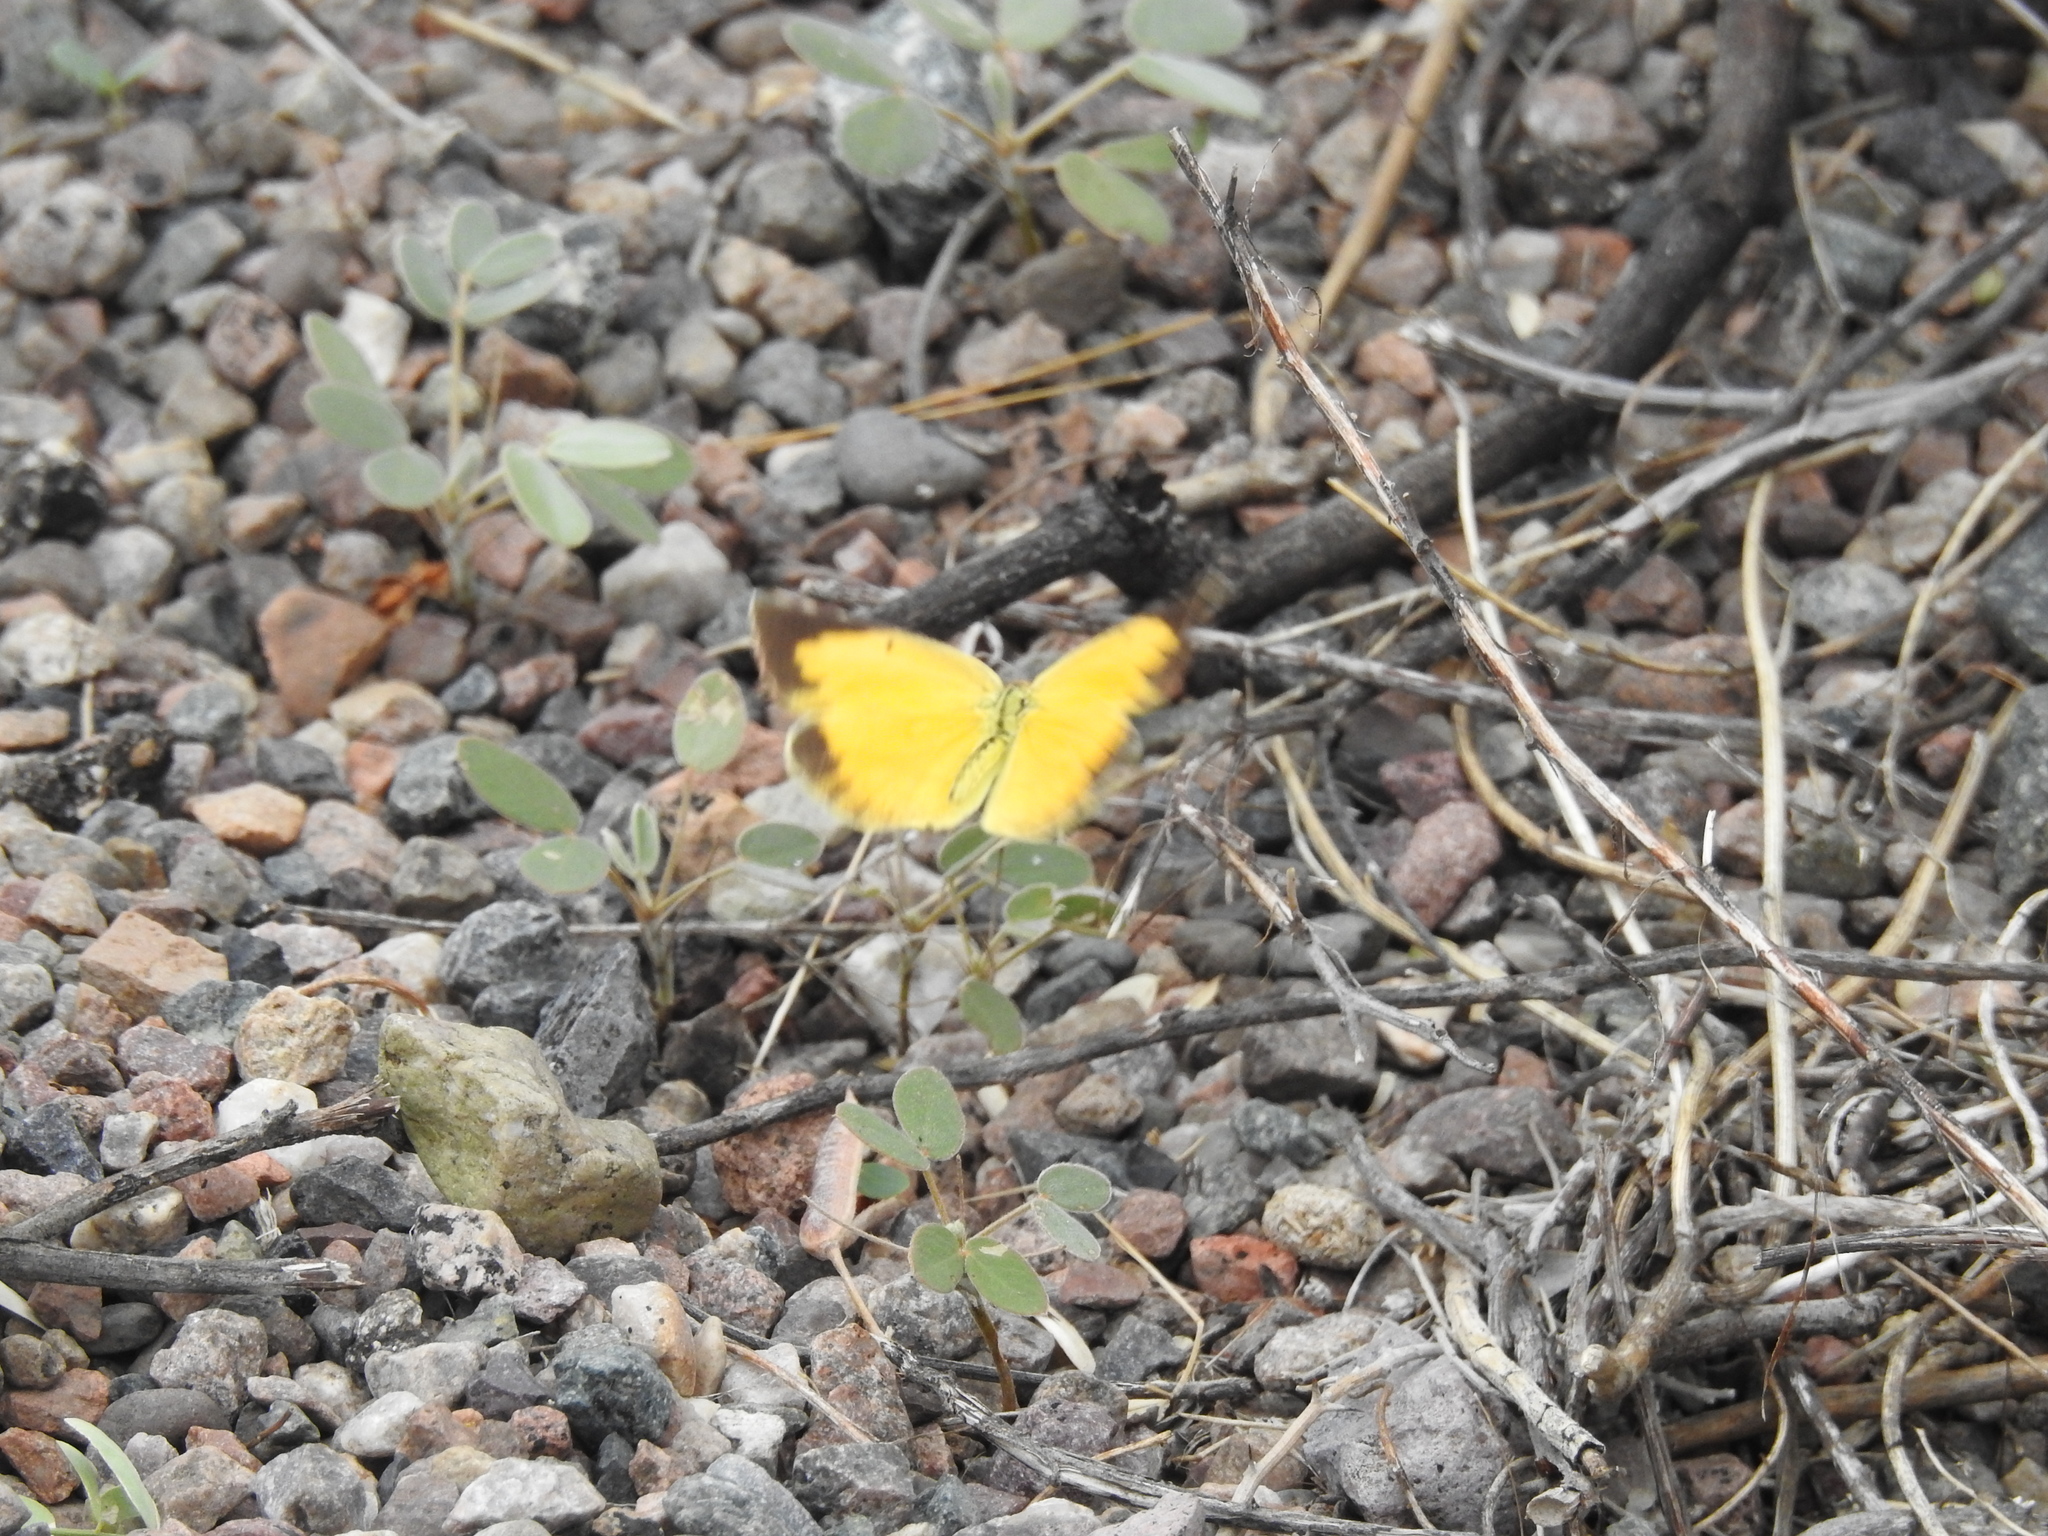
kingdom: Animalia
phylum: Arthropoda
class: Insecta
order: Lepidoptera
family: Pieridae
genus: Abaeis
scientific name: Abaeis nicippe
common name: Sleepy orange
